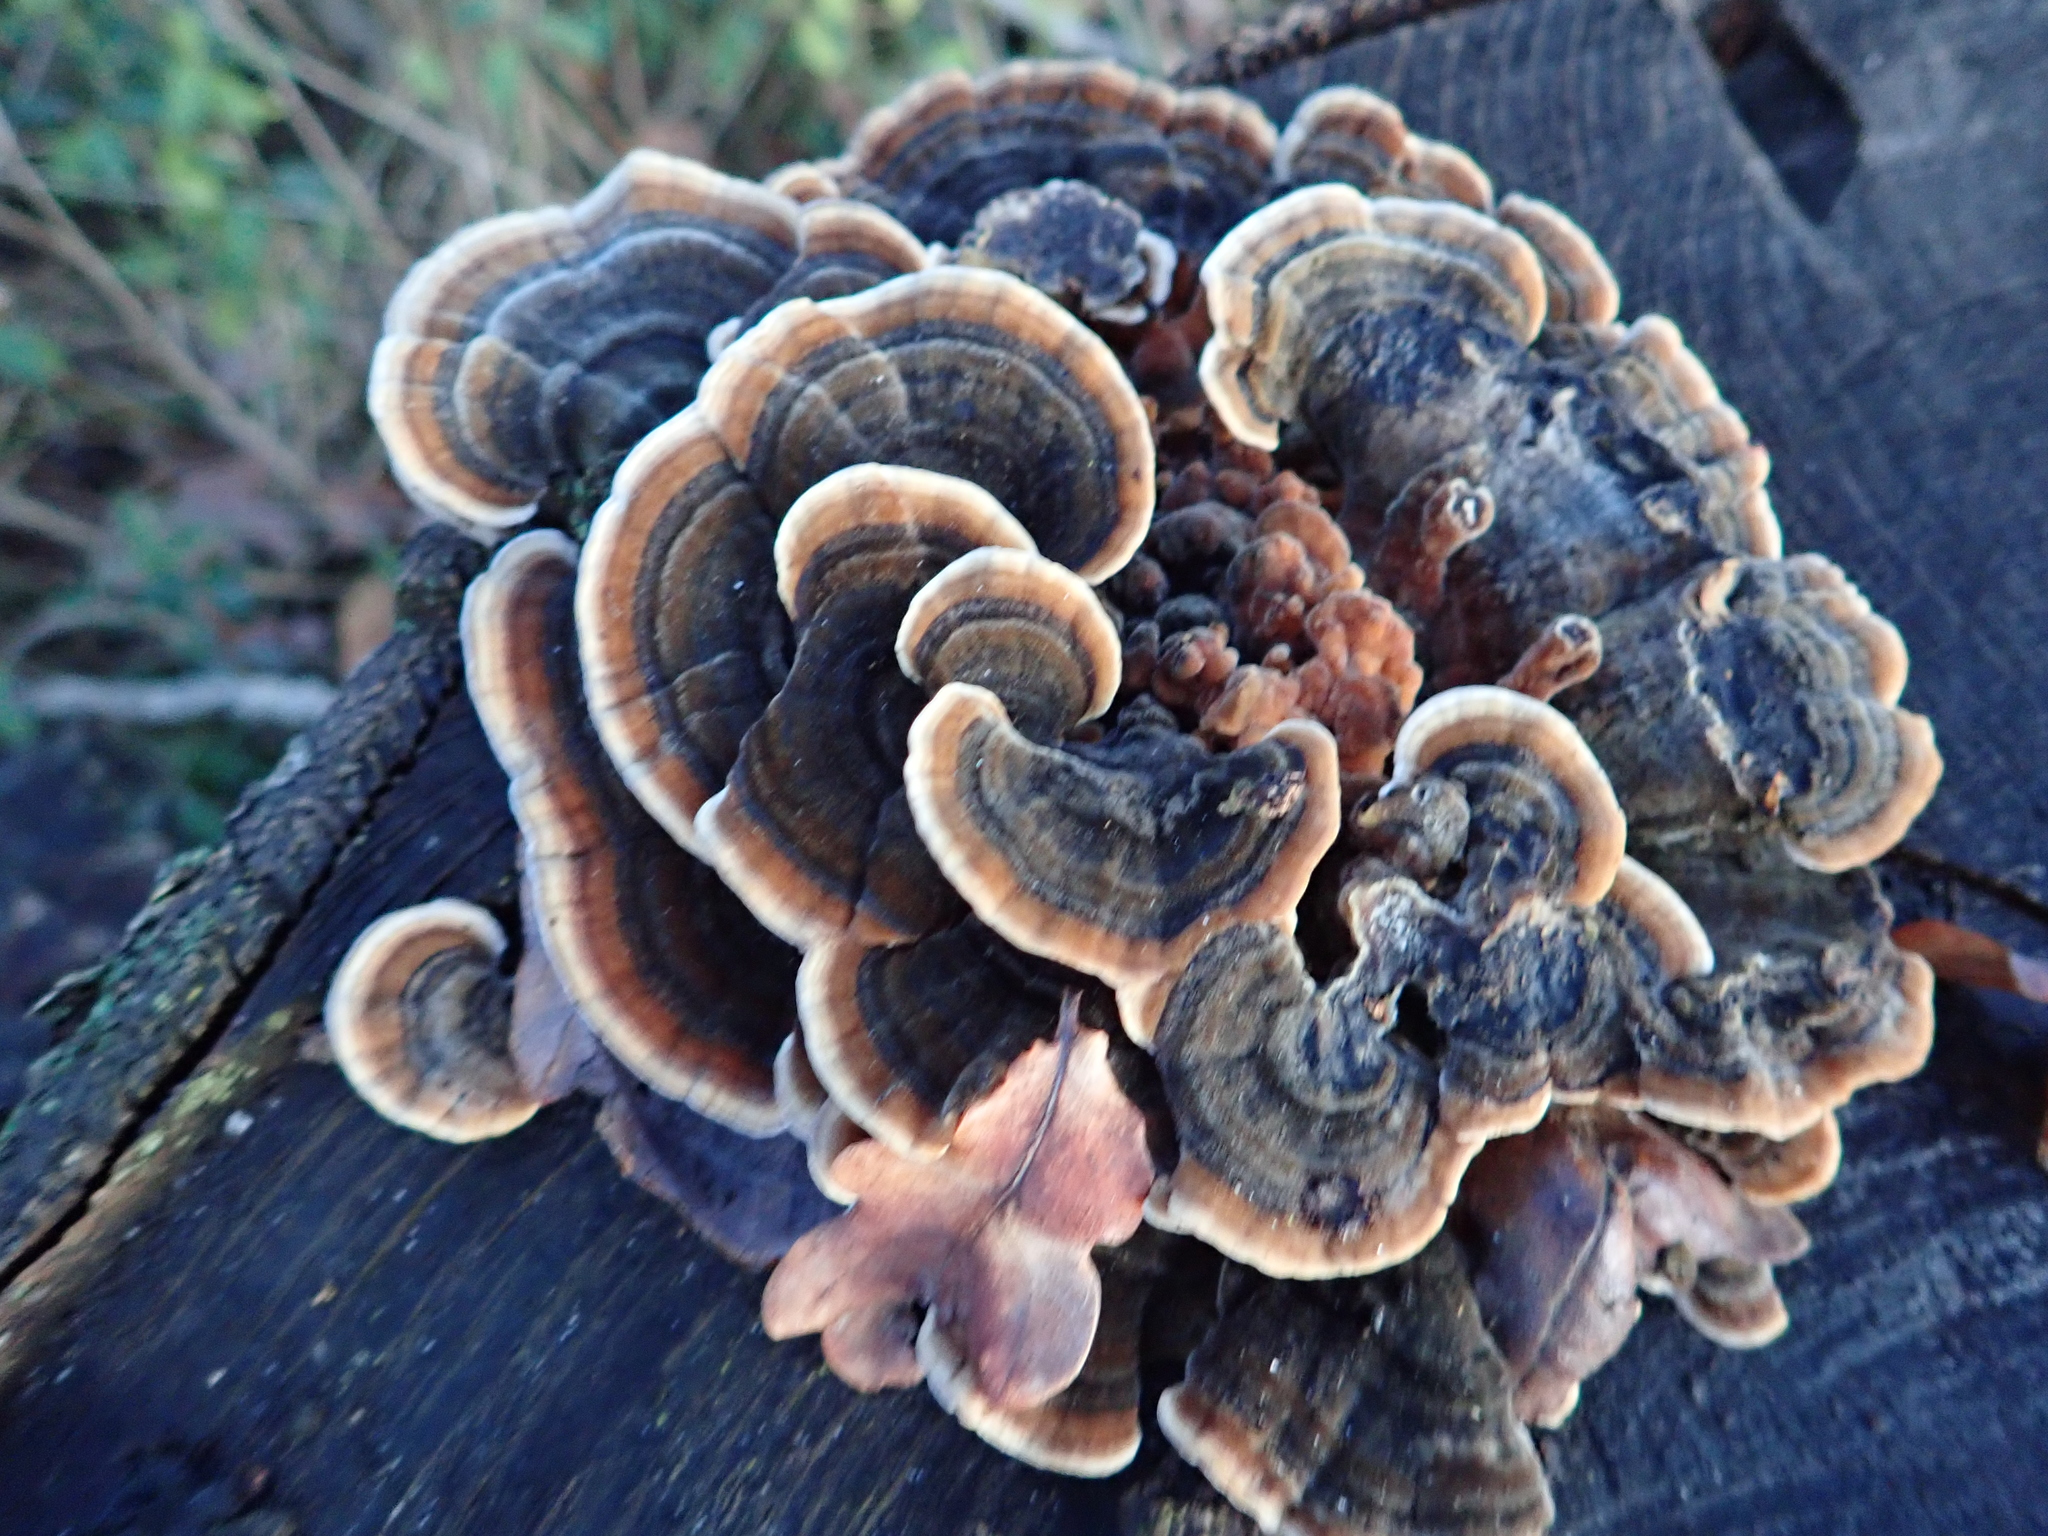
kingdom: Fungi
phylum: Basidiomycota
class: Agaricomycetes
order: Polyporales
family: Polyporaceae
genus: Trametes
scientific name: Trametes versicolor
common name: Turkeytail
